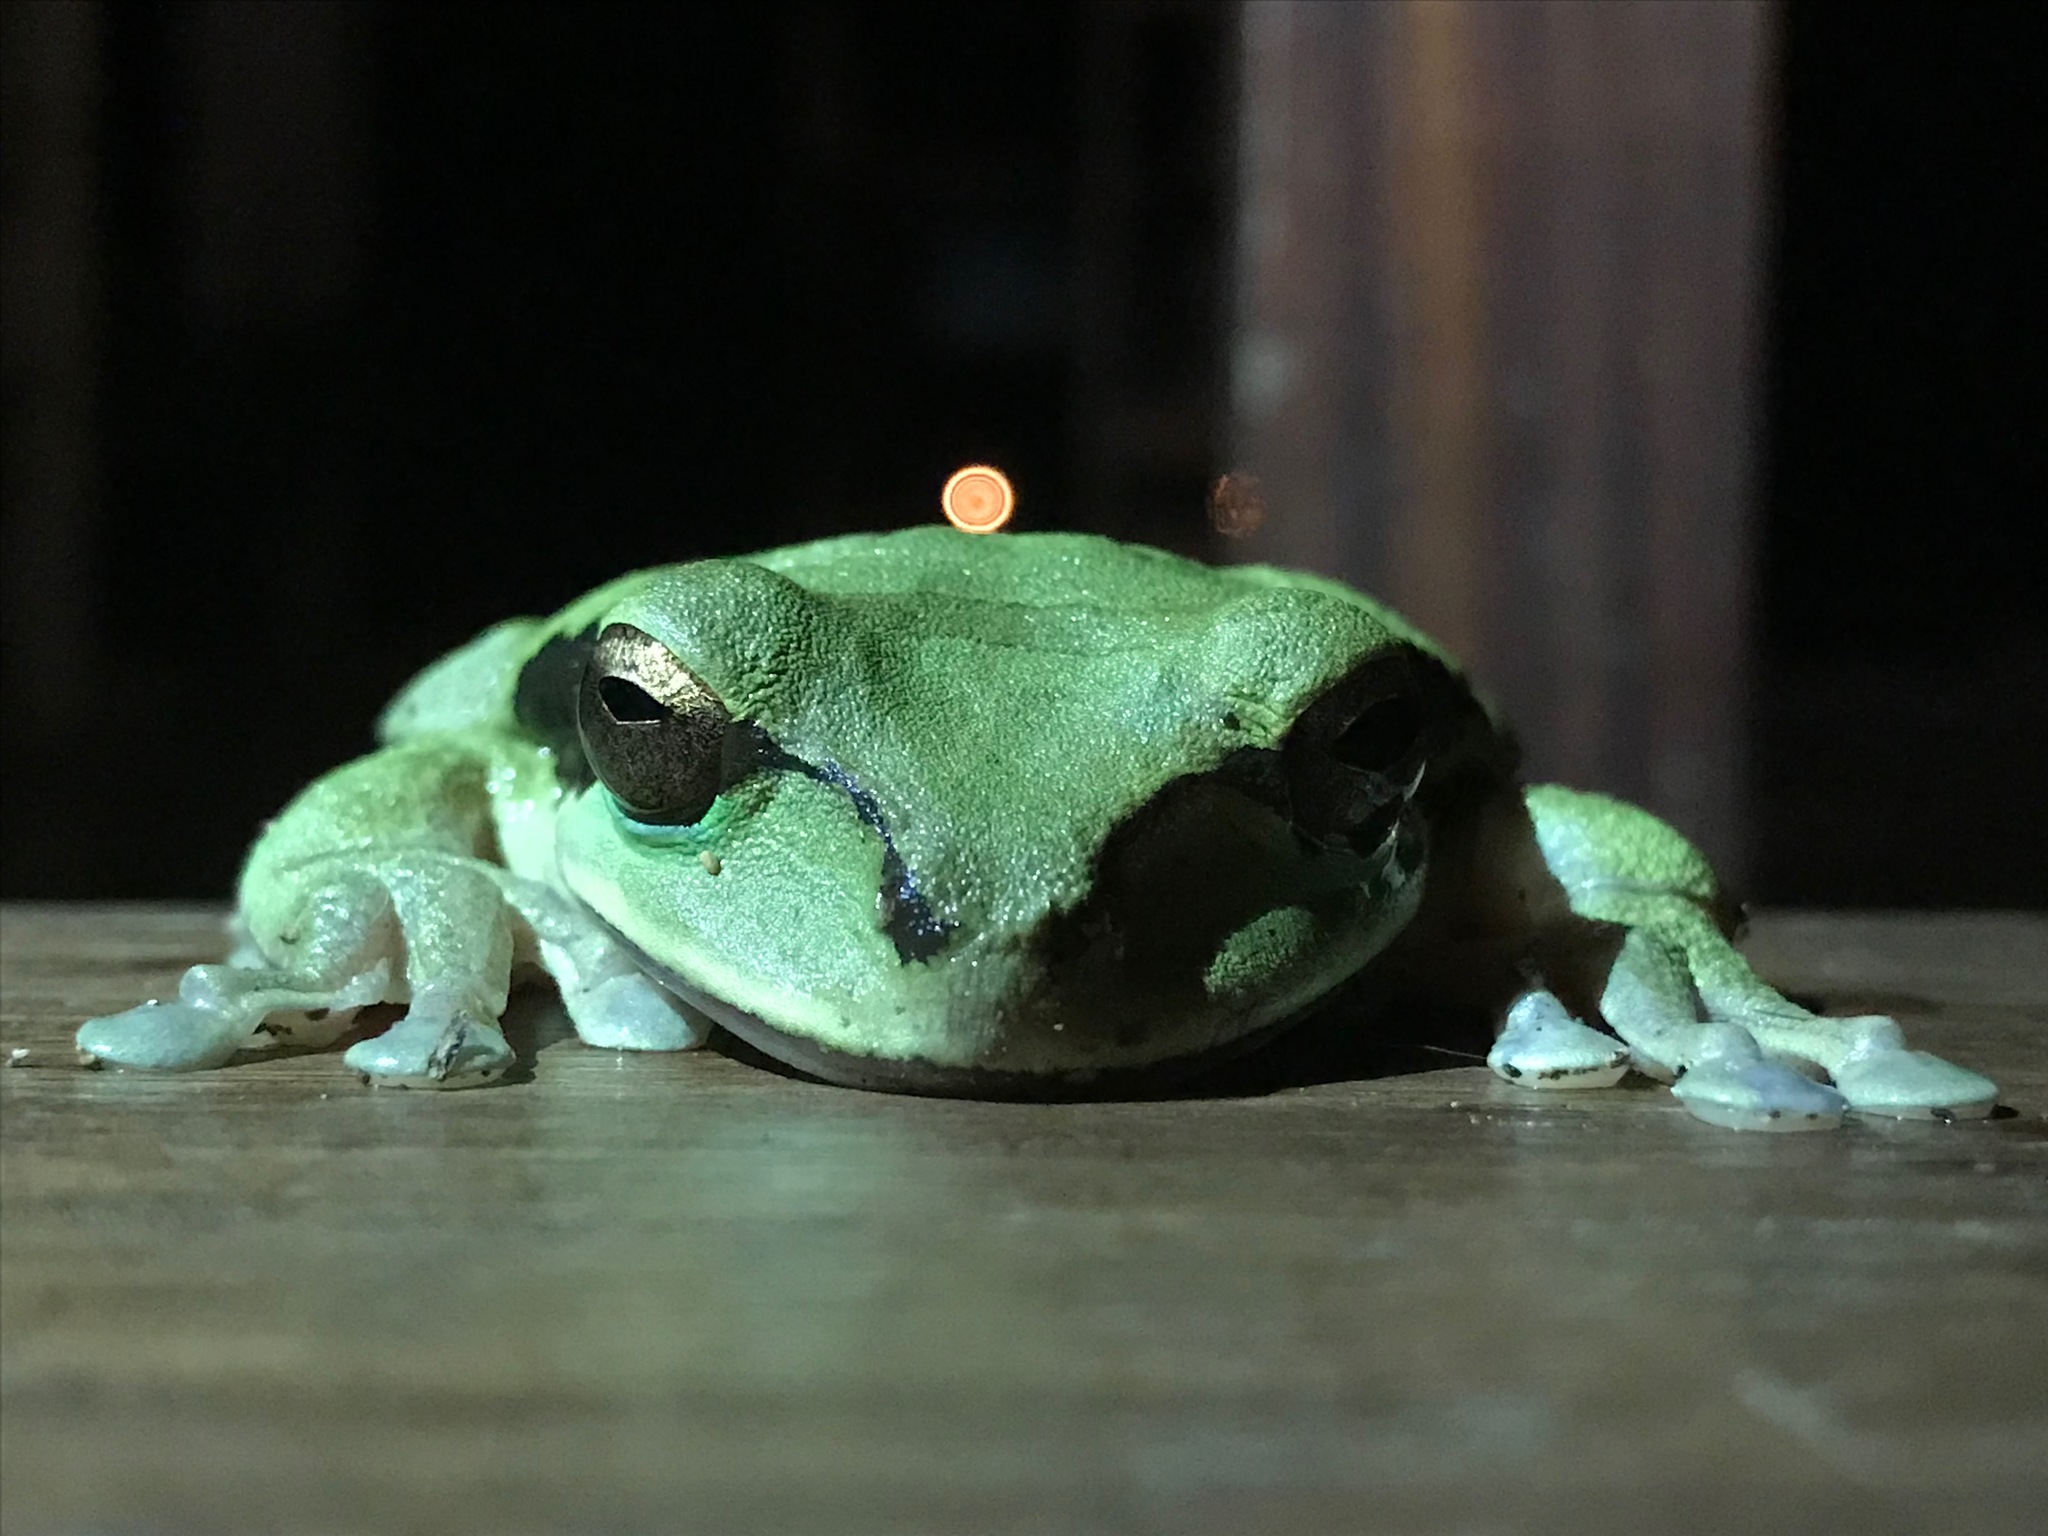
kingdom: Animalia
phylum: Chordata
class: Amphibia
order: Anura
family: Hylidae
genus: Smilisca
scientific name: Smilisca baudinii
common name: Mexican smilisca
